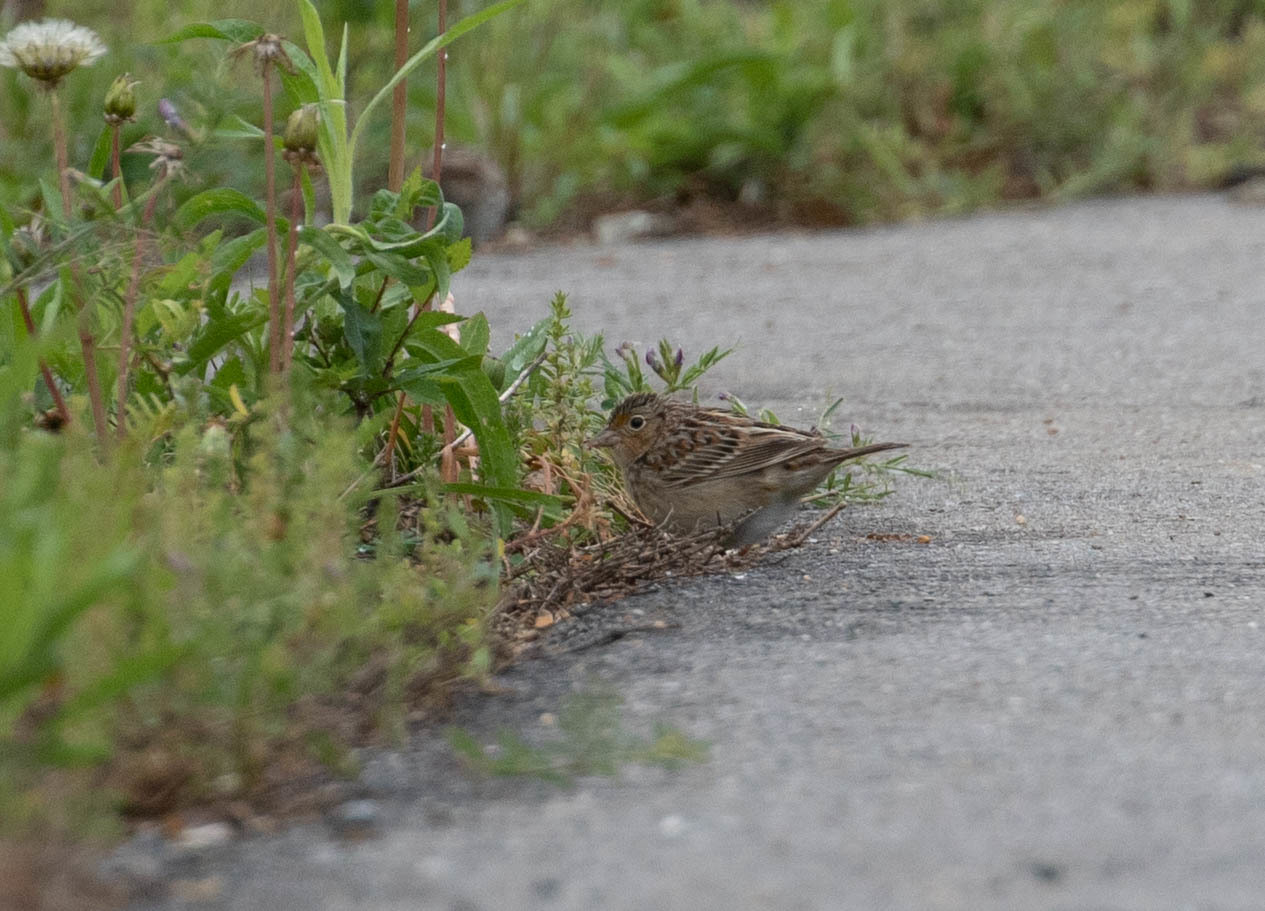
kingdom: Animalia
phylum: Chordata
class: Aves
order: Passeriformes
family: Passerellidae
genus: Ammodramus
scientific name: Ammodramus savannarum
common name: Grasshopper sparrow
